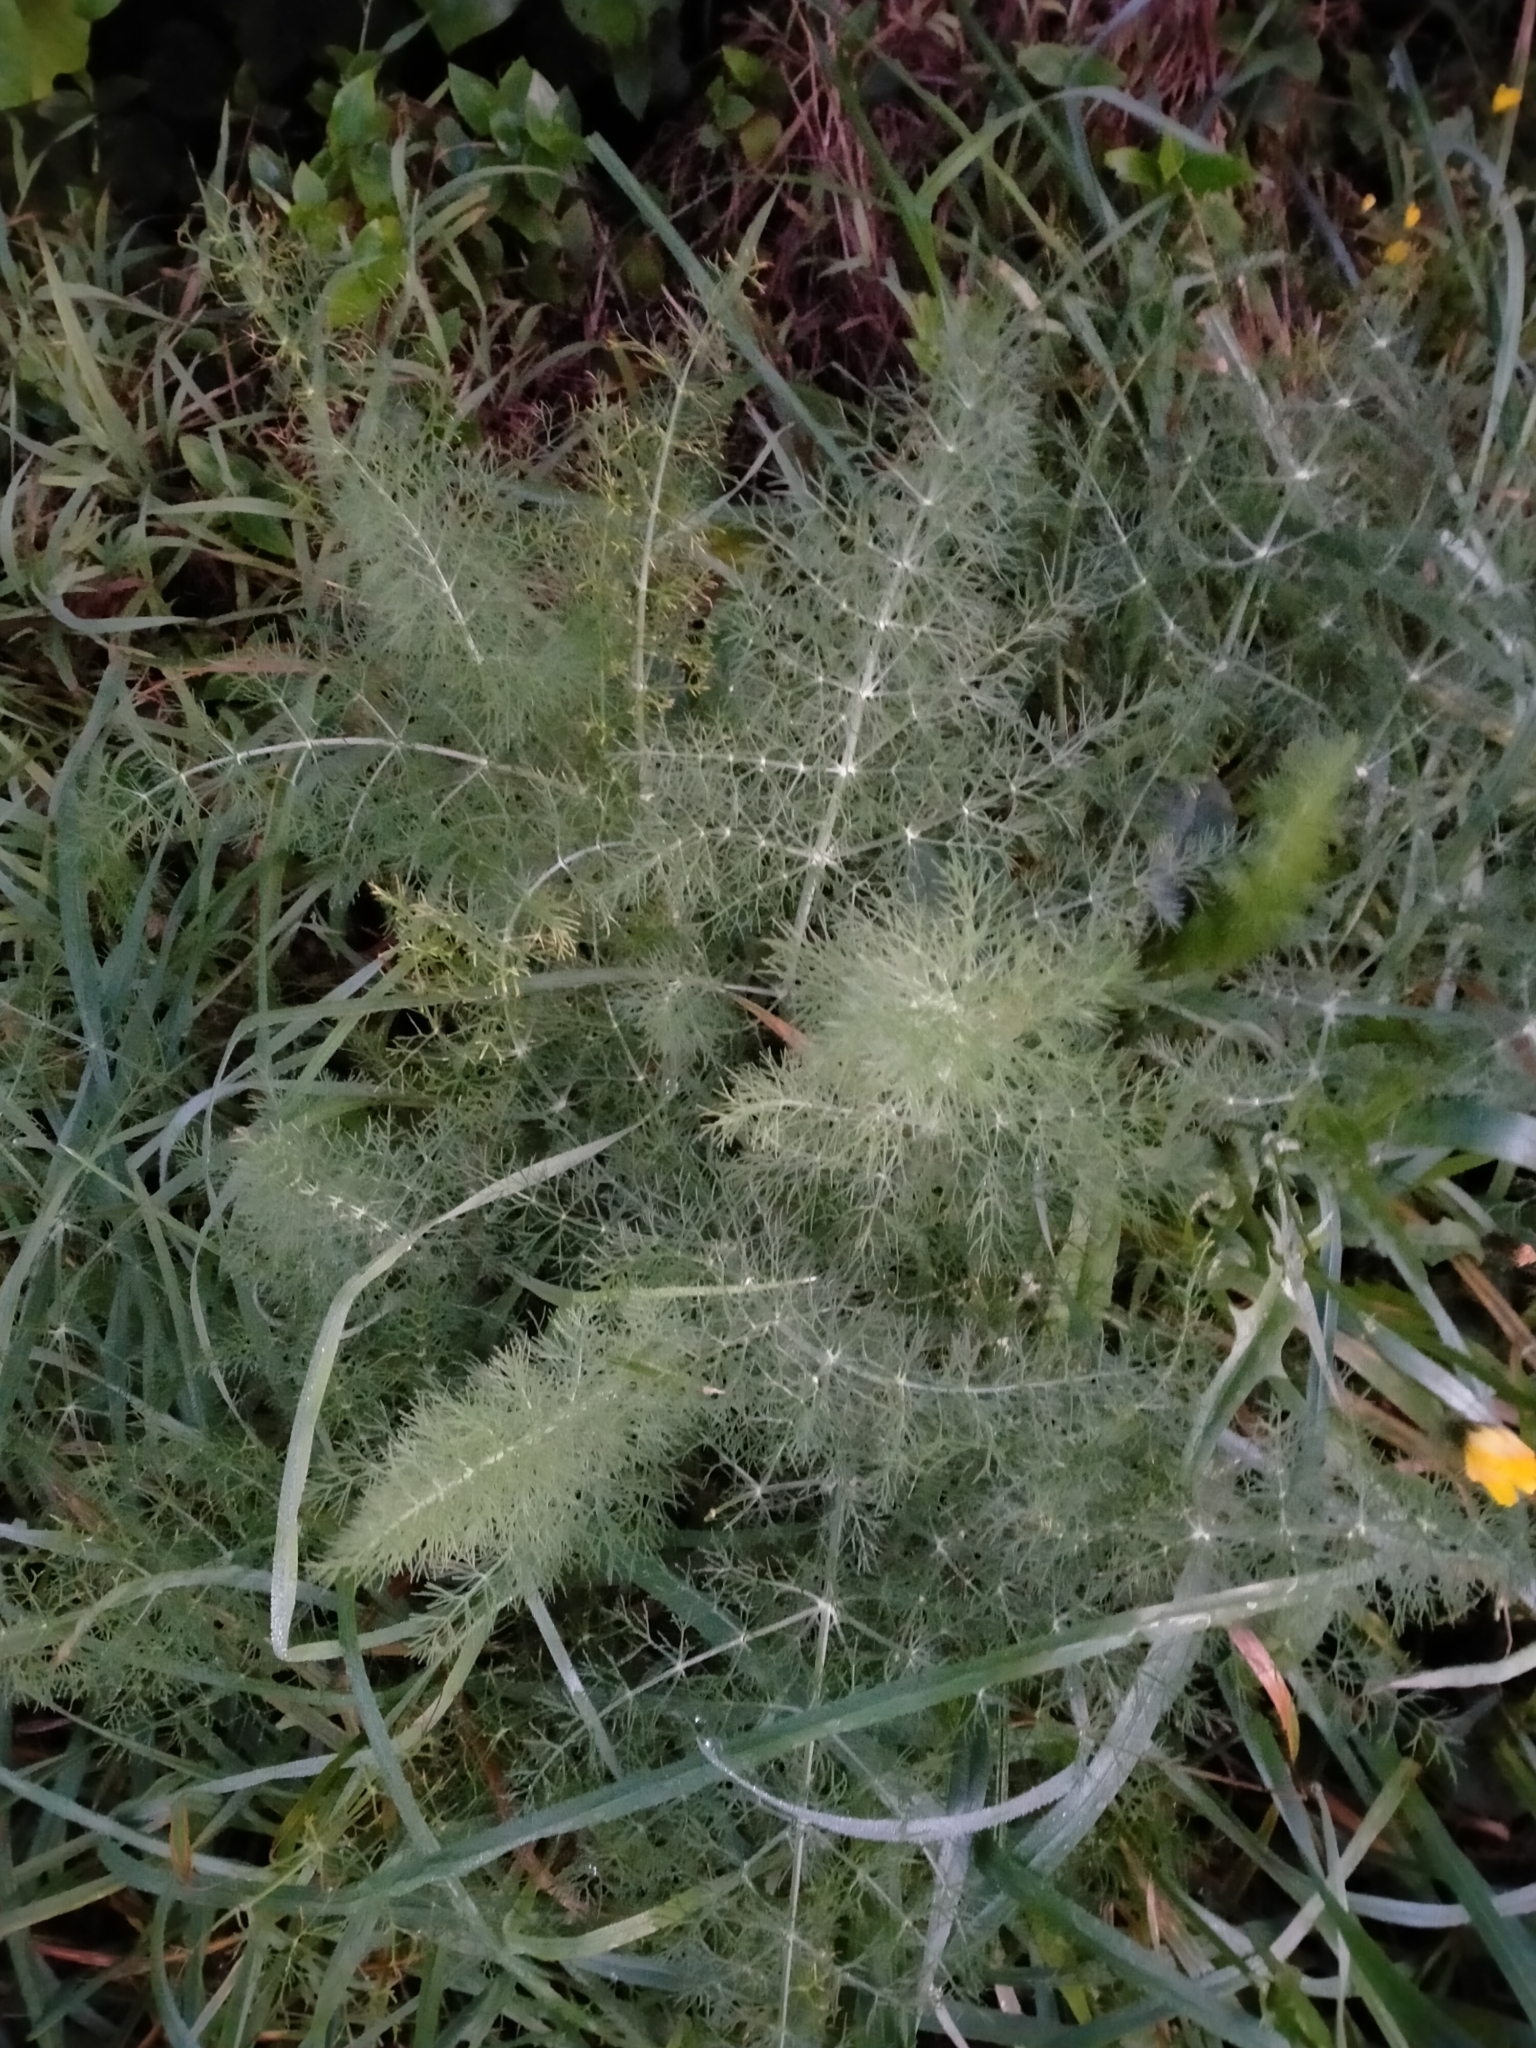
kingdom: Plantae
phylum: Tracheophyta
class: Magnoliopsida
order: Apiales
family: Apiaceae
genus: Foeniculum
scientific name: Foeniculum vulgare
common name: Fennel
